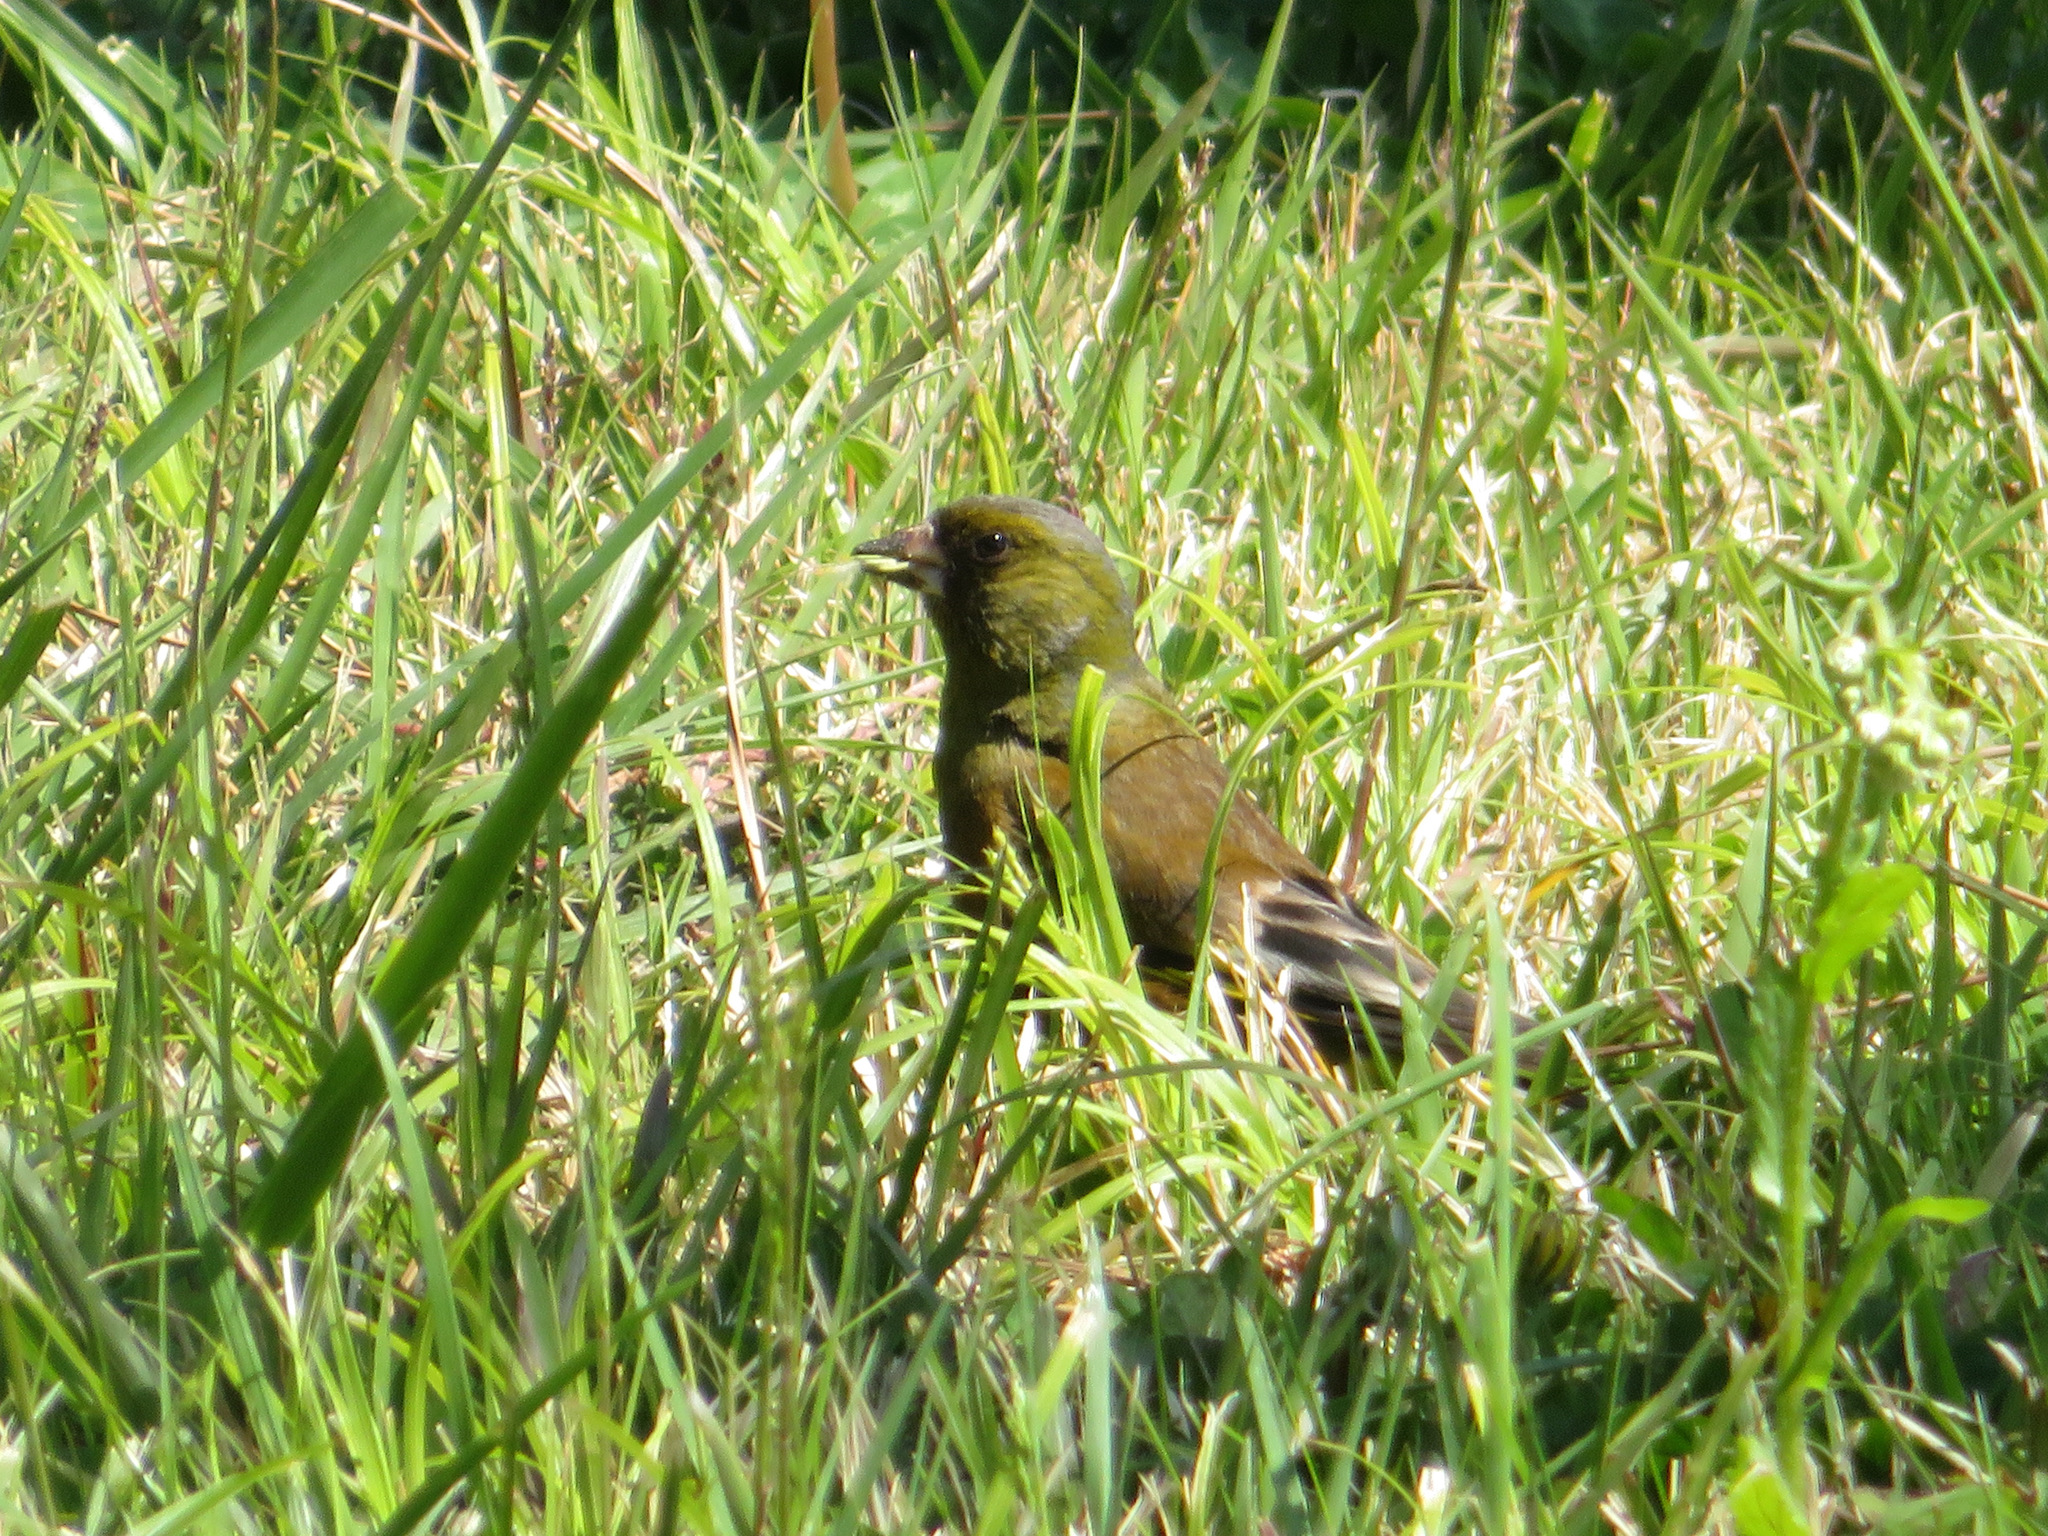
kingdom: Plantae
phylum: Tracheophyta
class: Liliopsida
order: Poales
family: Poaceae
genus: Chloris
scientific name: Chloris sinica
